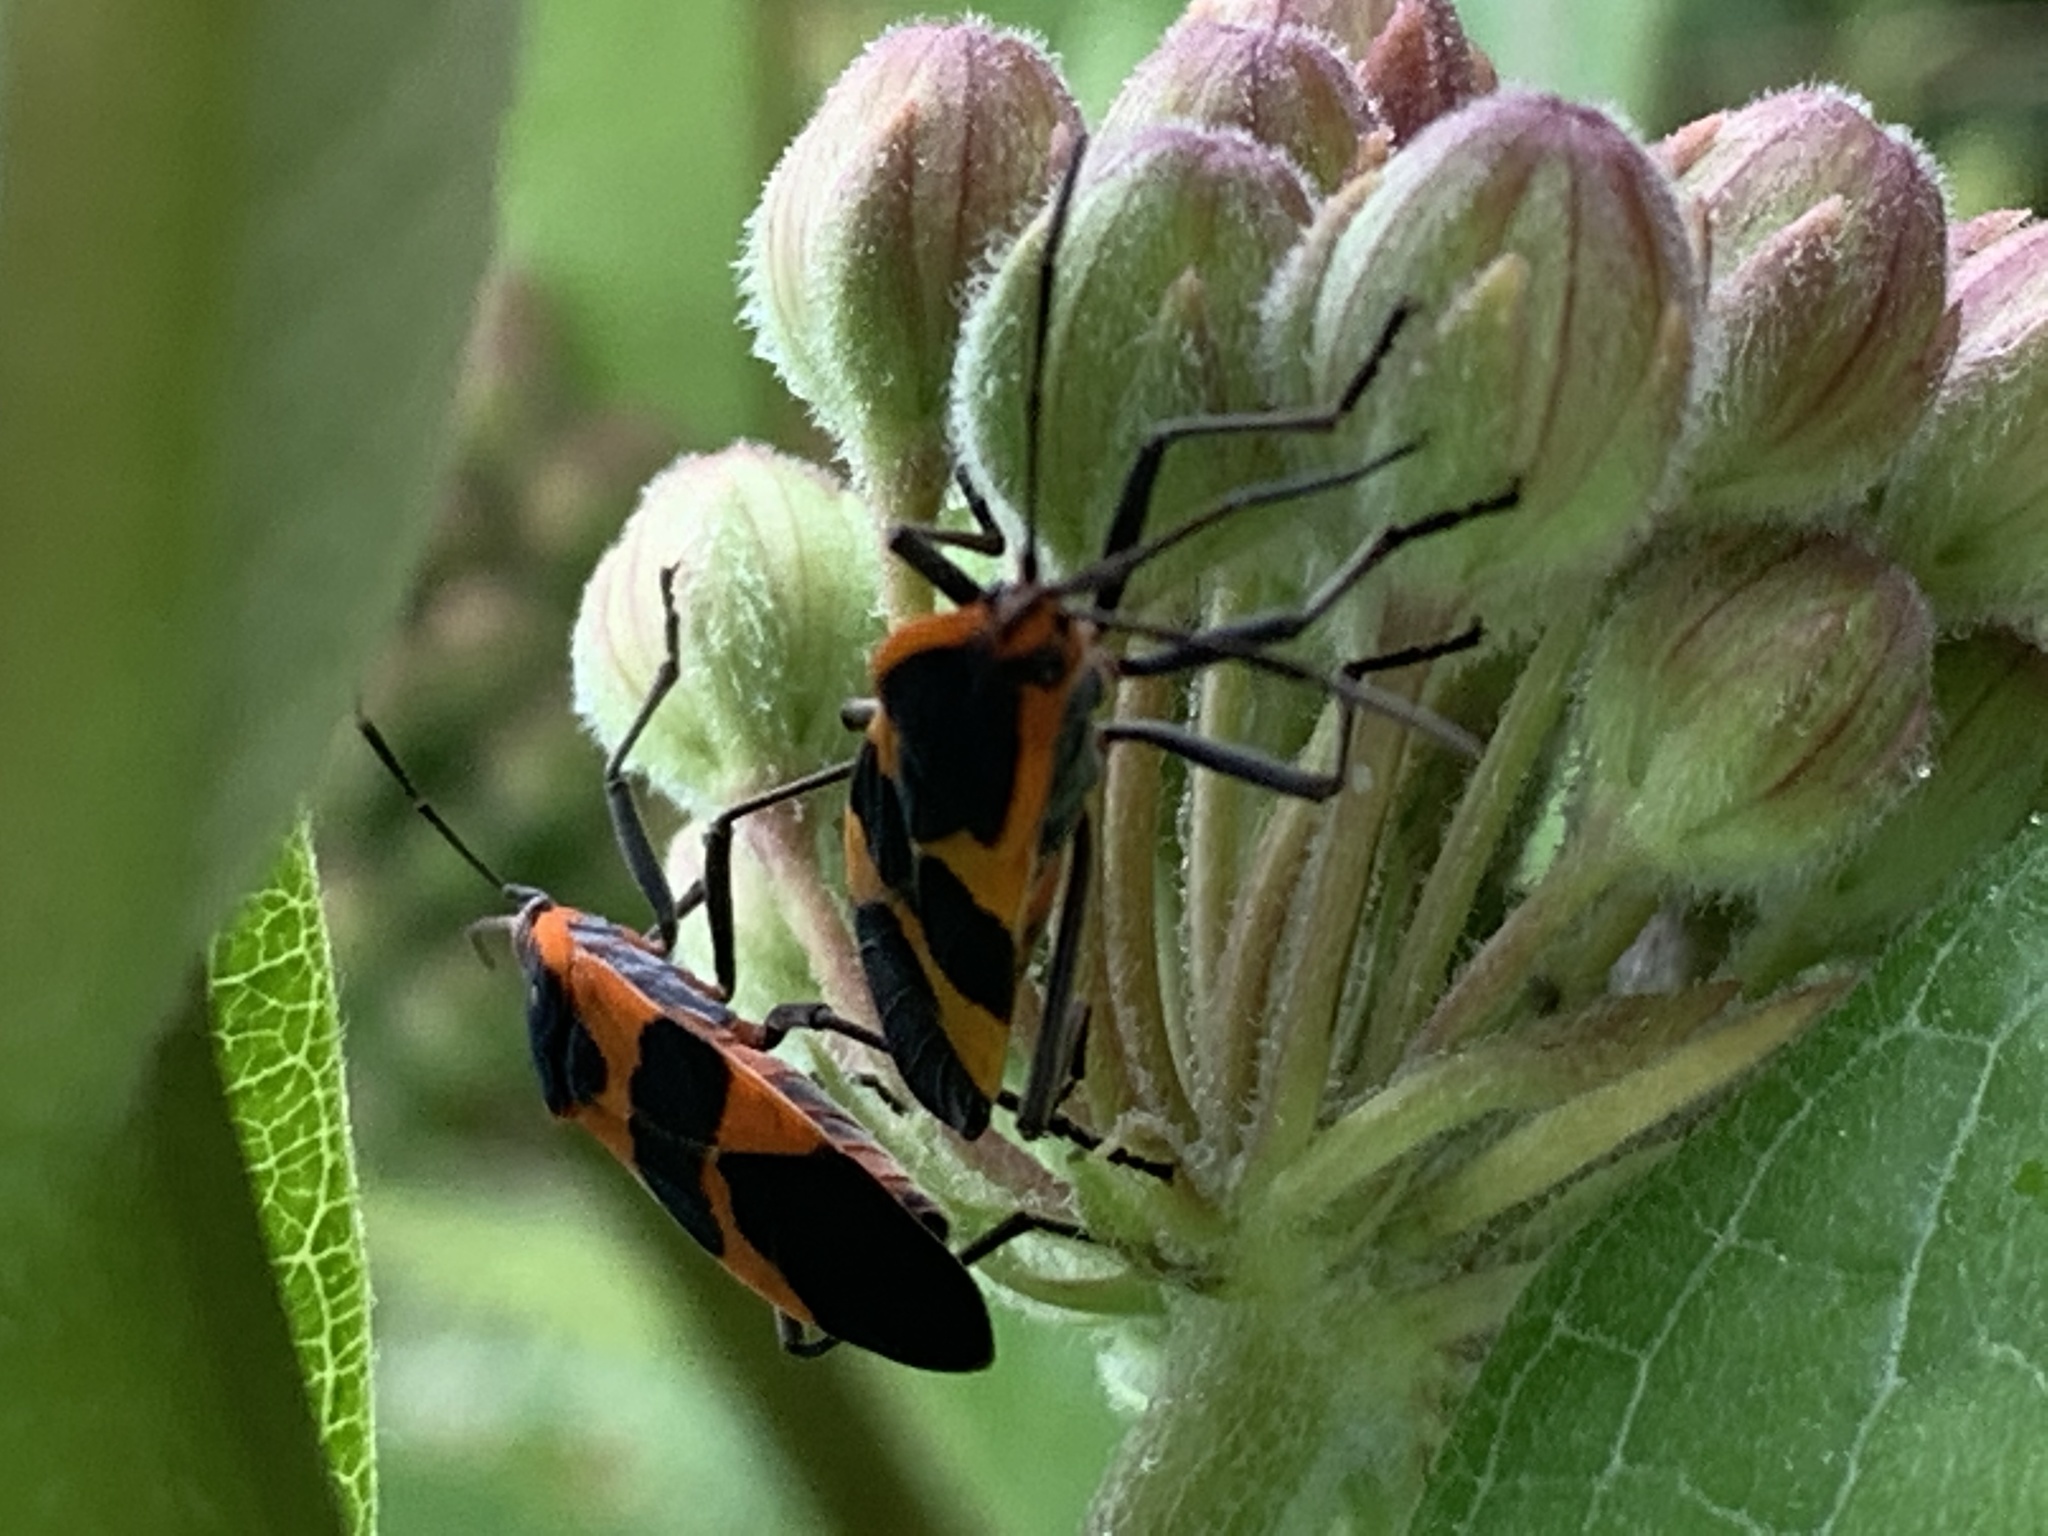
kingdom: Animalia
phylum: Arthropoda
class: Insecta
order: Hemiptera
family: Lygaeidae
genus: Oncopeltus
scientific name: Oncopeltus fasciatus
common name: Large milkweed bug
